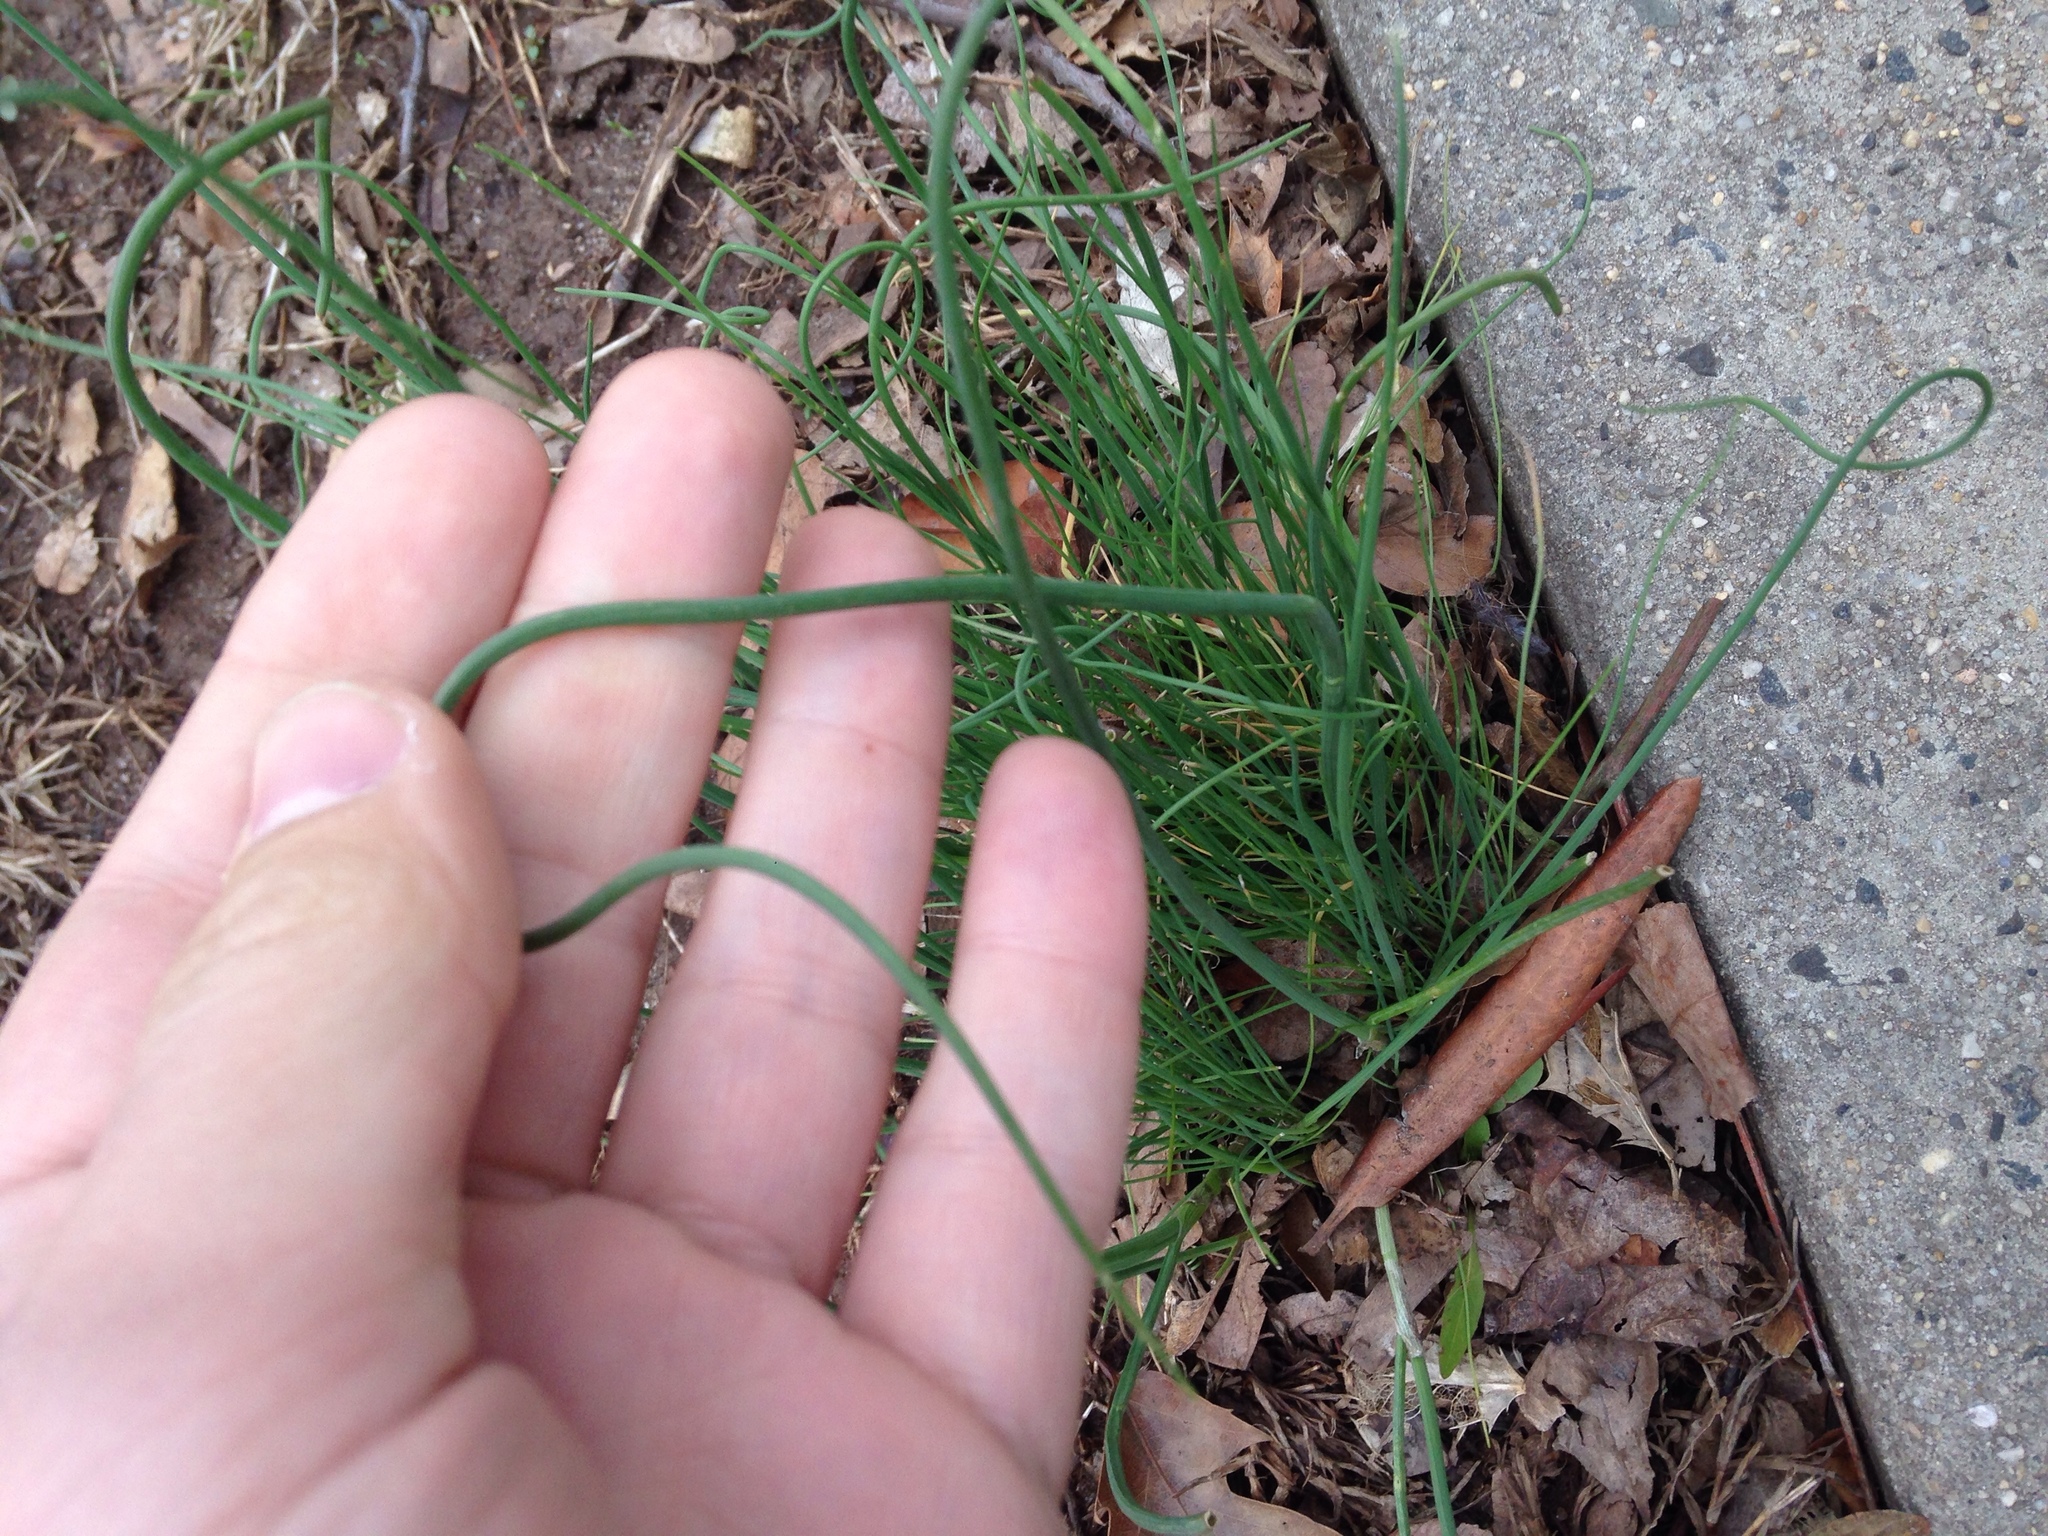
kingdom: Plantae
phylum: Tracheophyta
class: Liliopsida
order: Asparagales
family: Amaryllidaceae
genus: Allium
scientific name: Allium vineale
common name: Crow garlic
